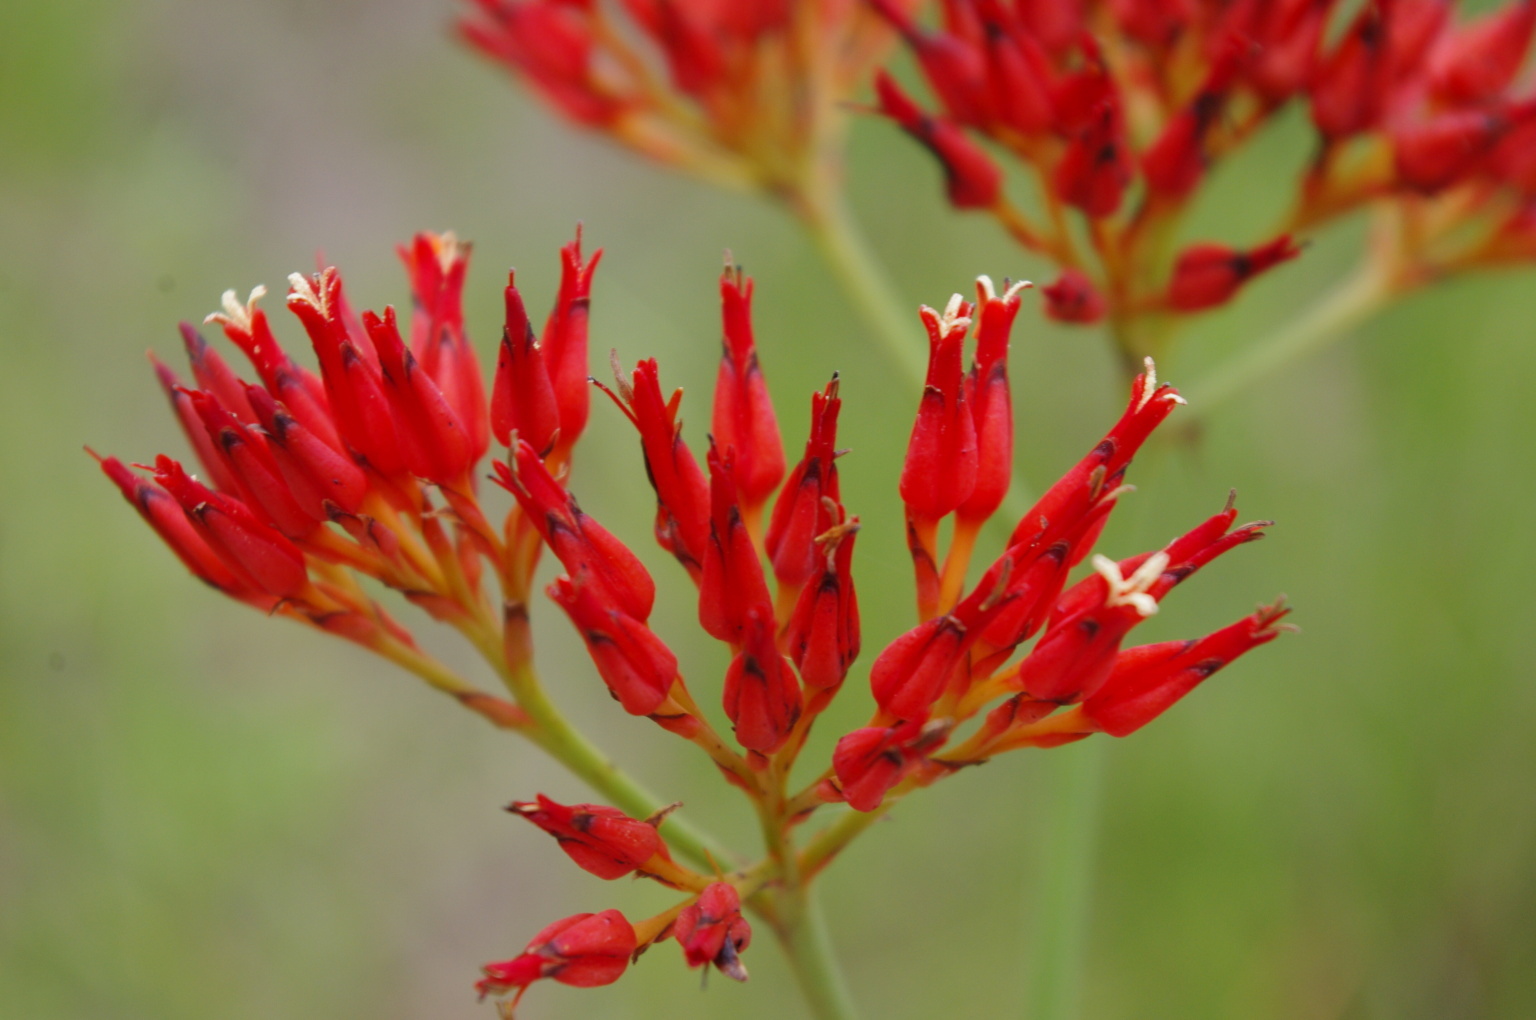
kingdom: Plantae
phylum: Tracheophyta
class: Liliopsida
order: Commelinales
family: Haemodoraceae
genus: Haemodorum
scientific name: Haemodorum coccineum
